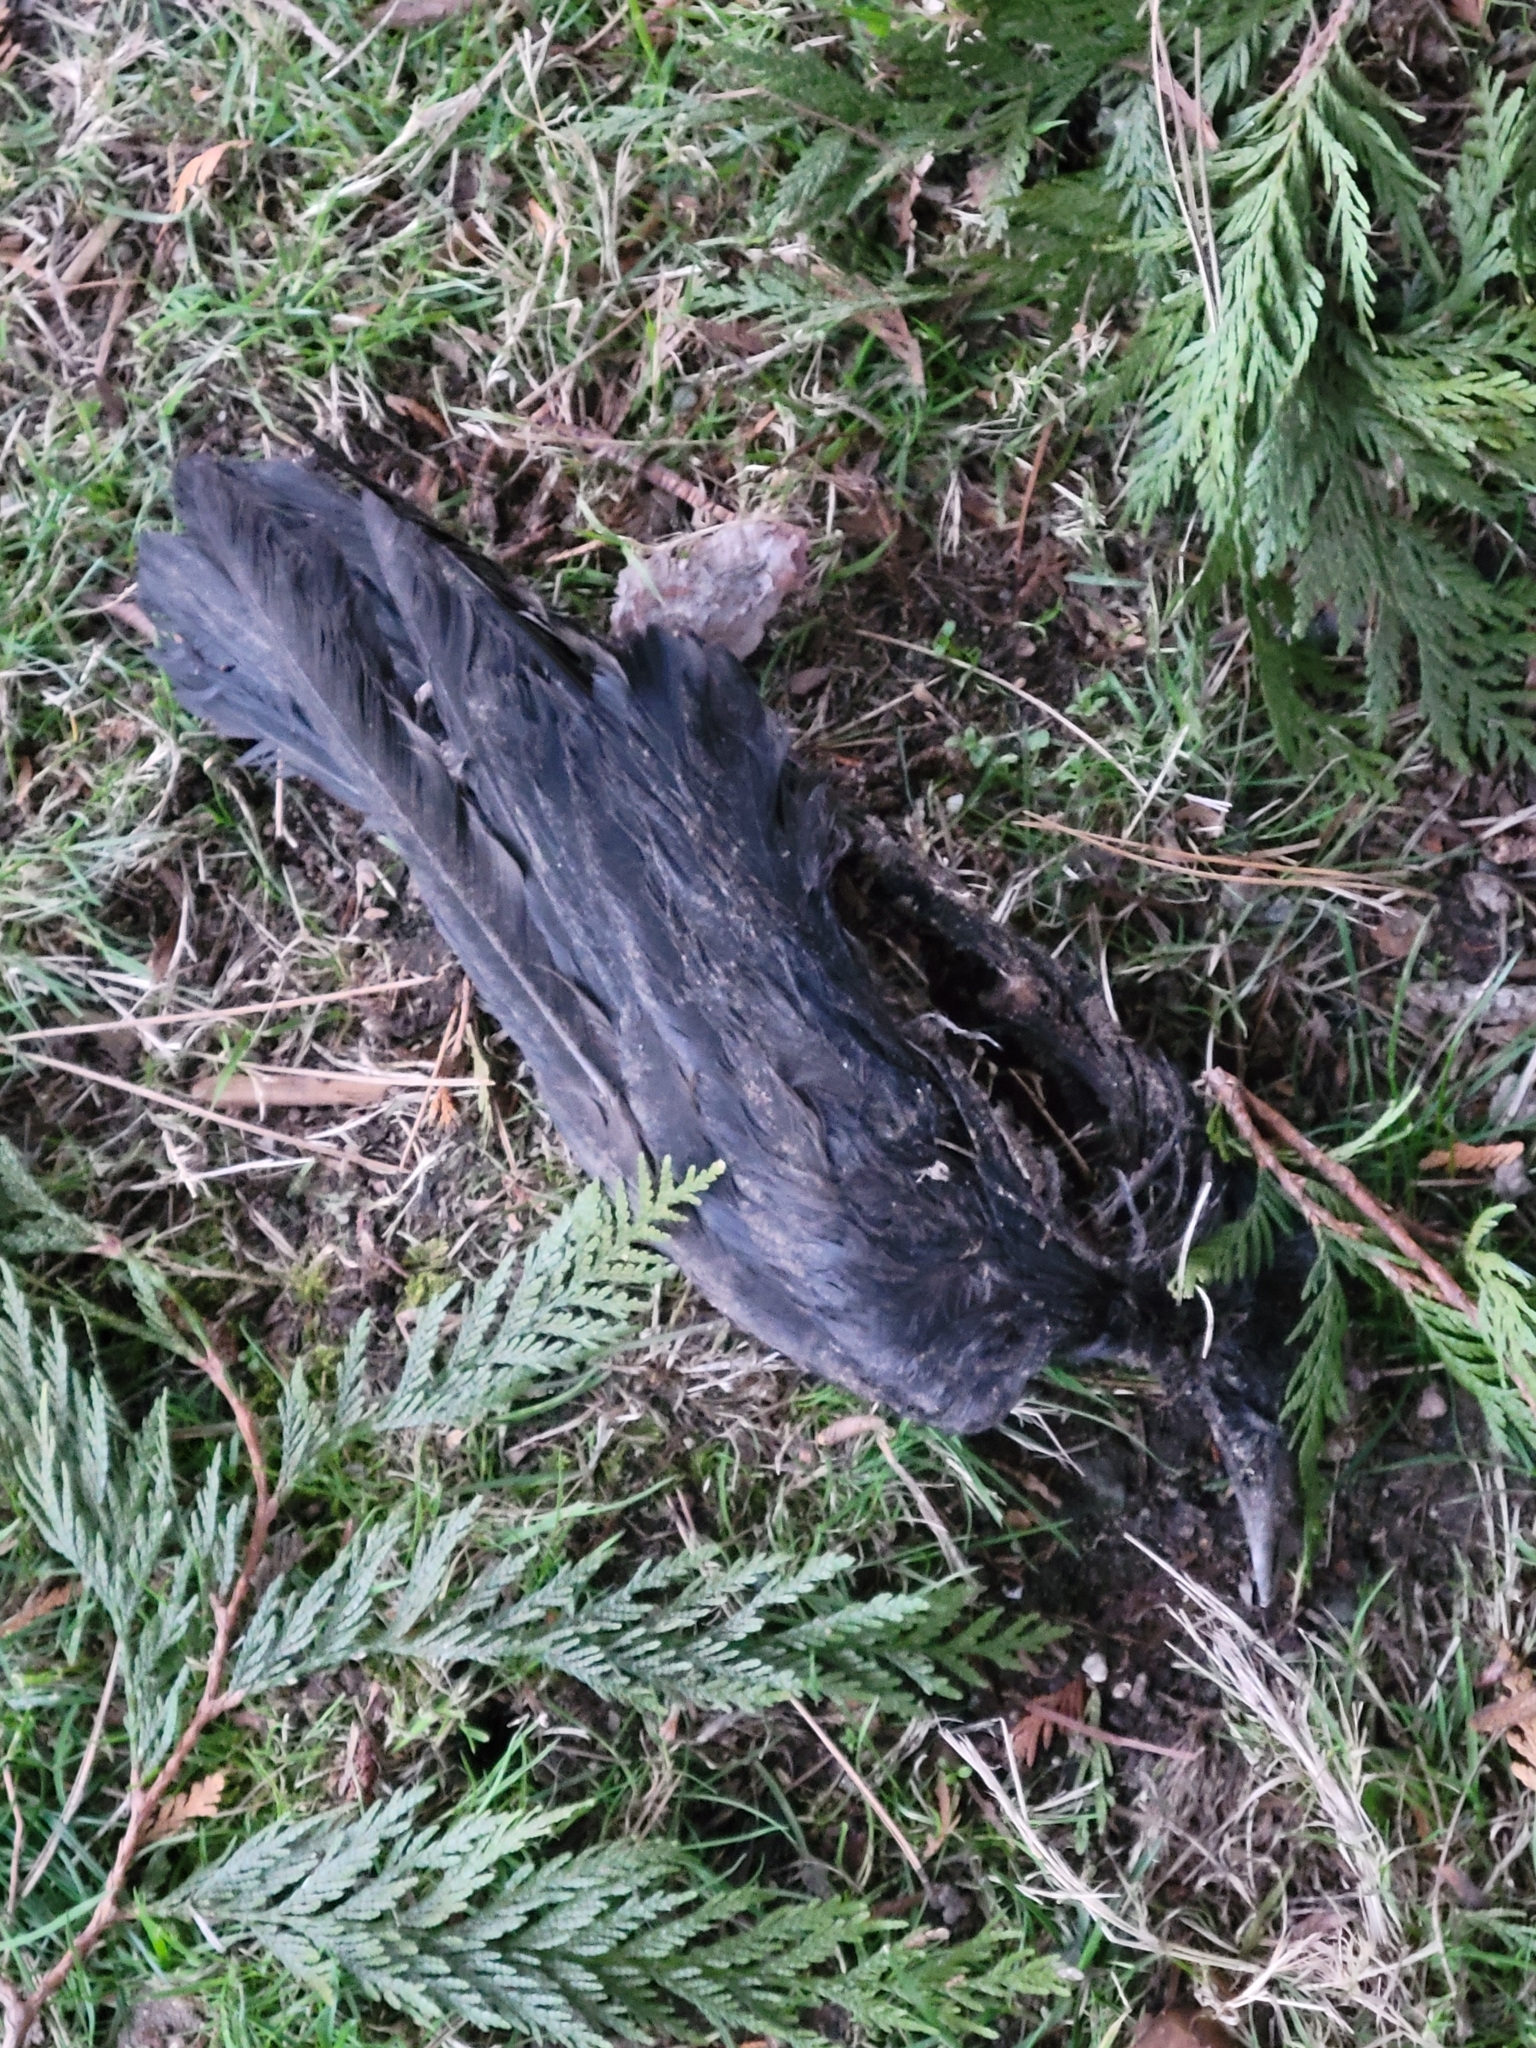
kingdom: Animalia
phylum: Chordata
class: Aves
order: Passeriformes
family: Corvidae
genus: Corvus
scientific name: Corvus brachyrhynchos
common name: American crow
